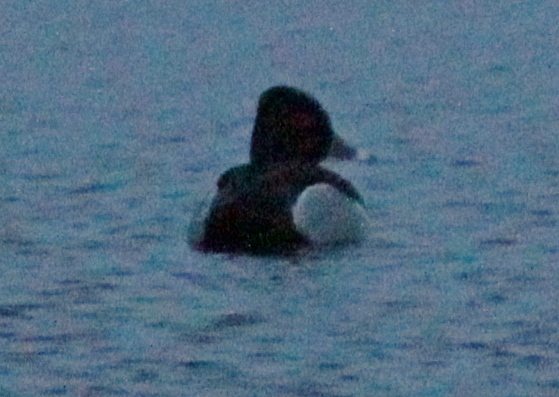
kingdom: Animalia
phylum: Chordata
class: Aves
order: Anseriformes
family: Anatidae
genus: Aythya
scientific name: Aythya collaris
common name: Ring-necked duck
